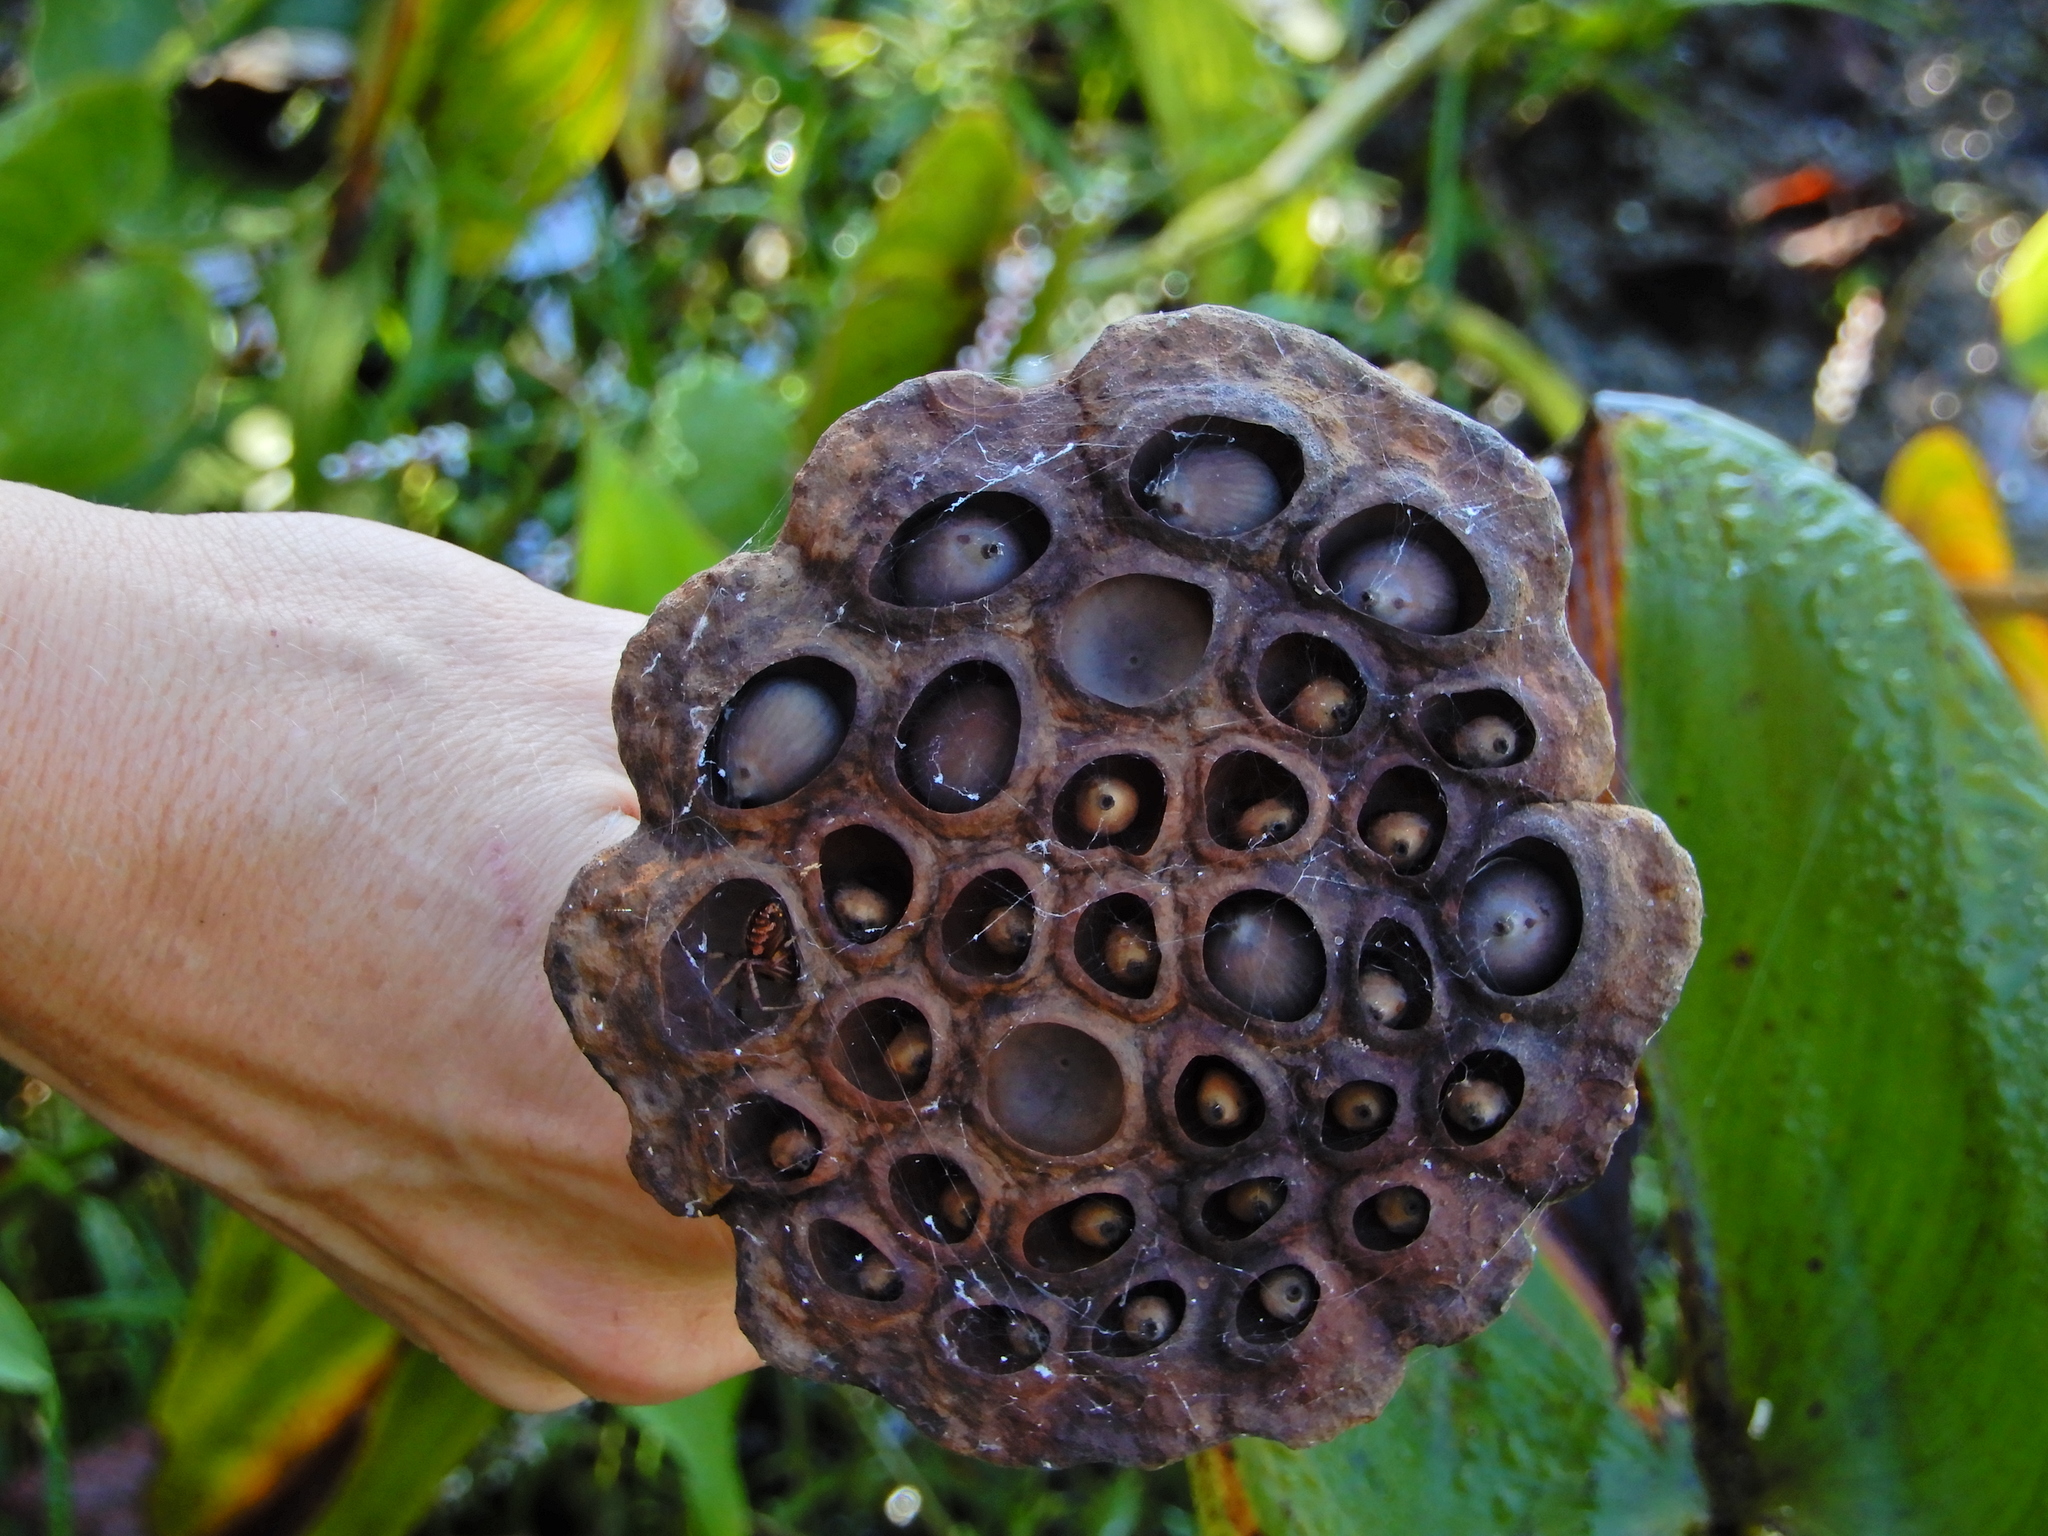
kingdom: Plantae
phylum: Tracheophyta
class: Magnoliopsida
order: Proteales
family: Nelumbonaceae
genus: Nelumbo
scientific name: Nelumbo lutea
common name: American lotus
